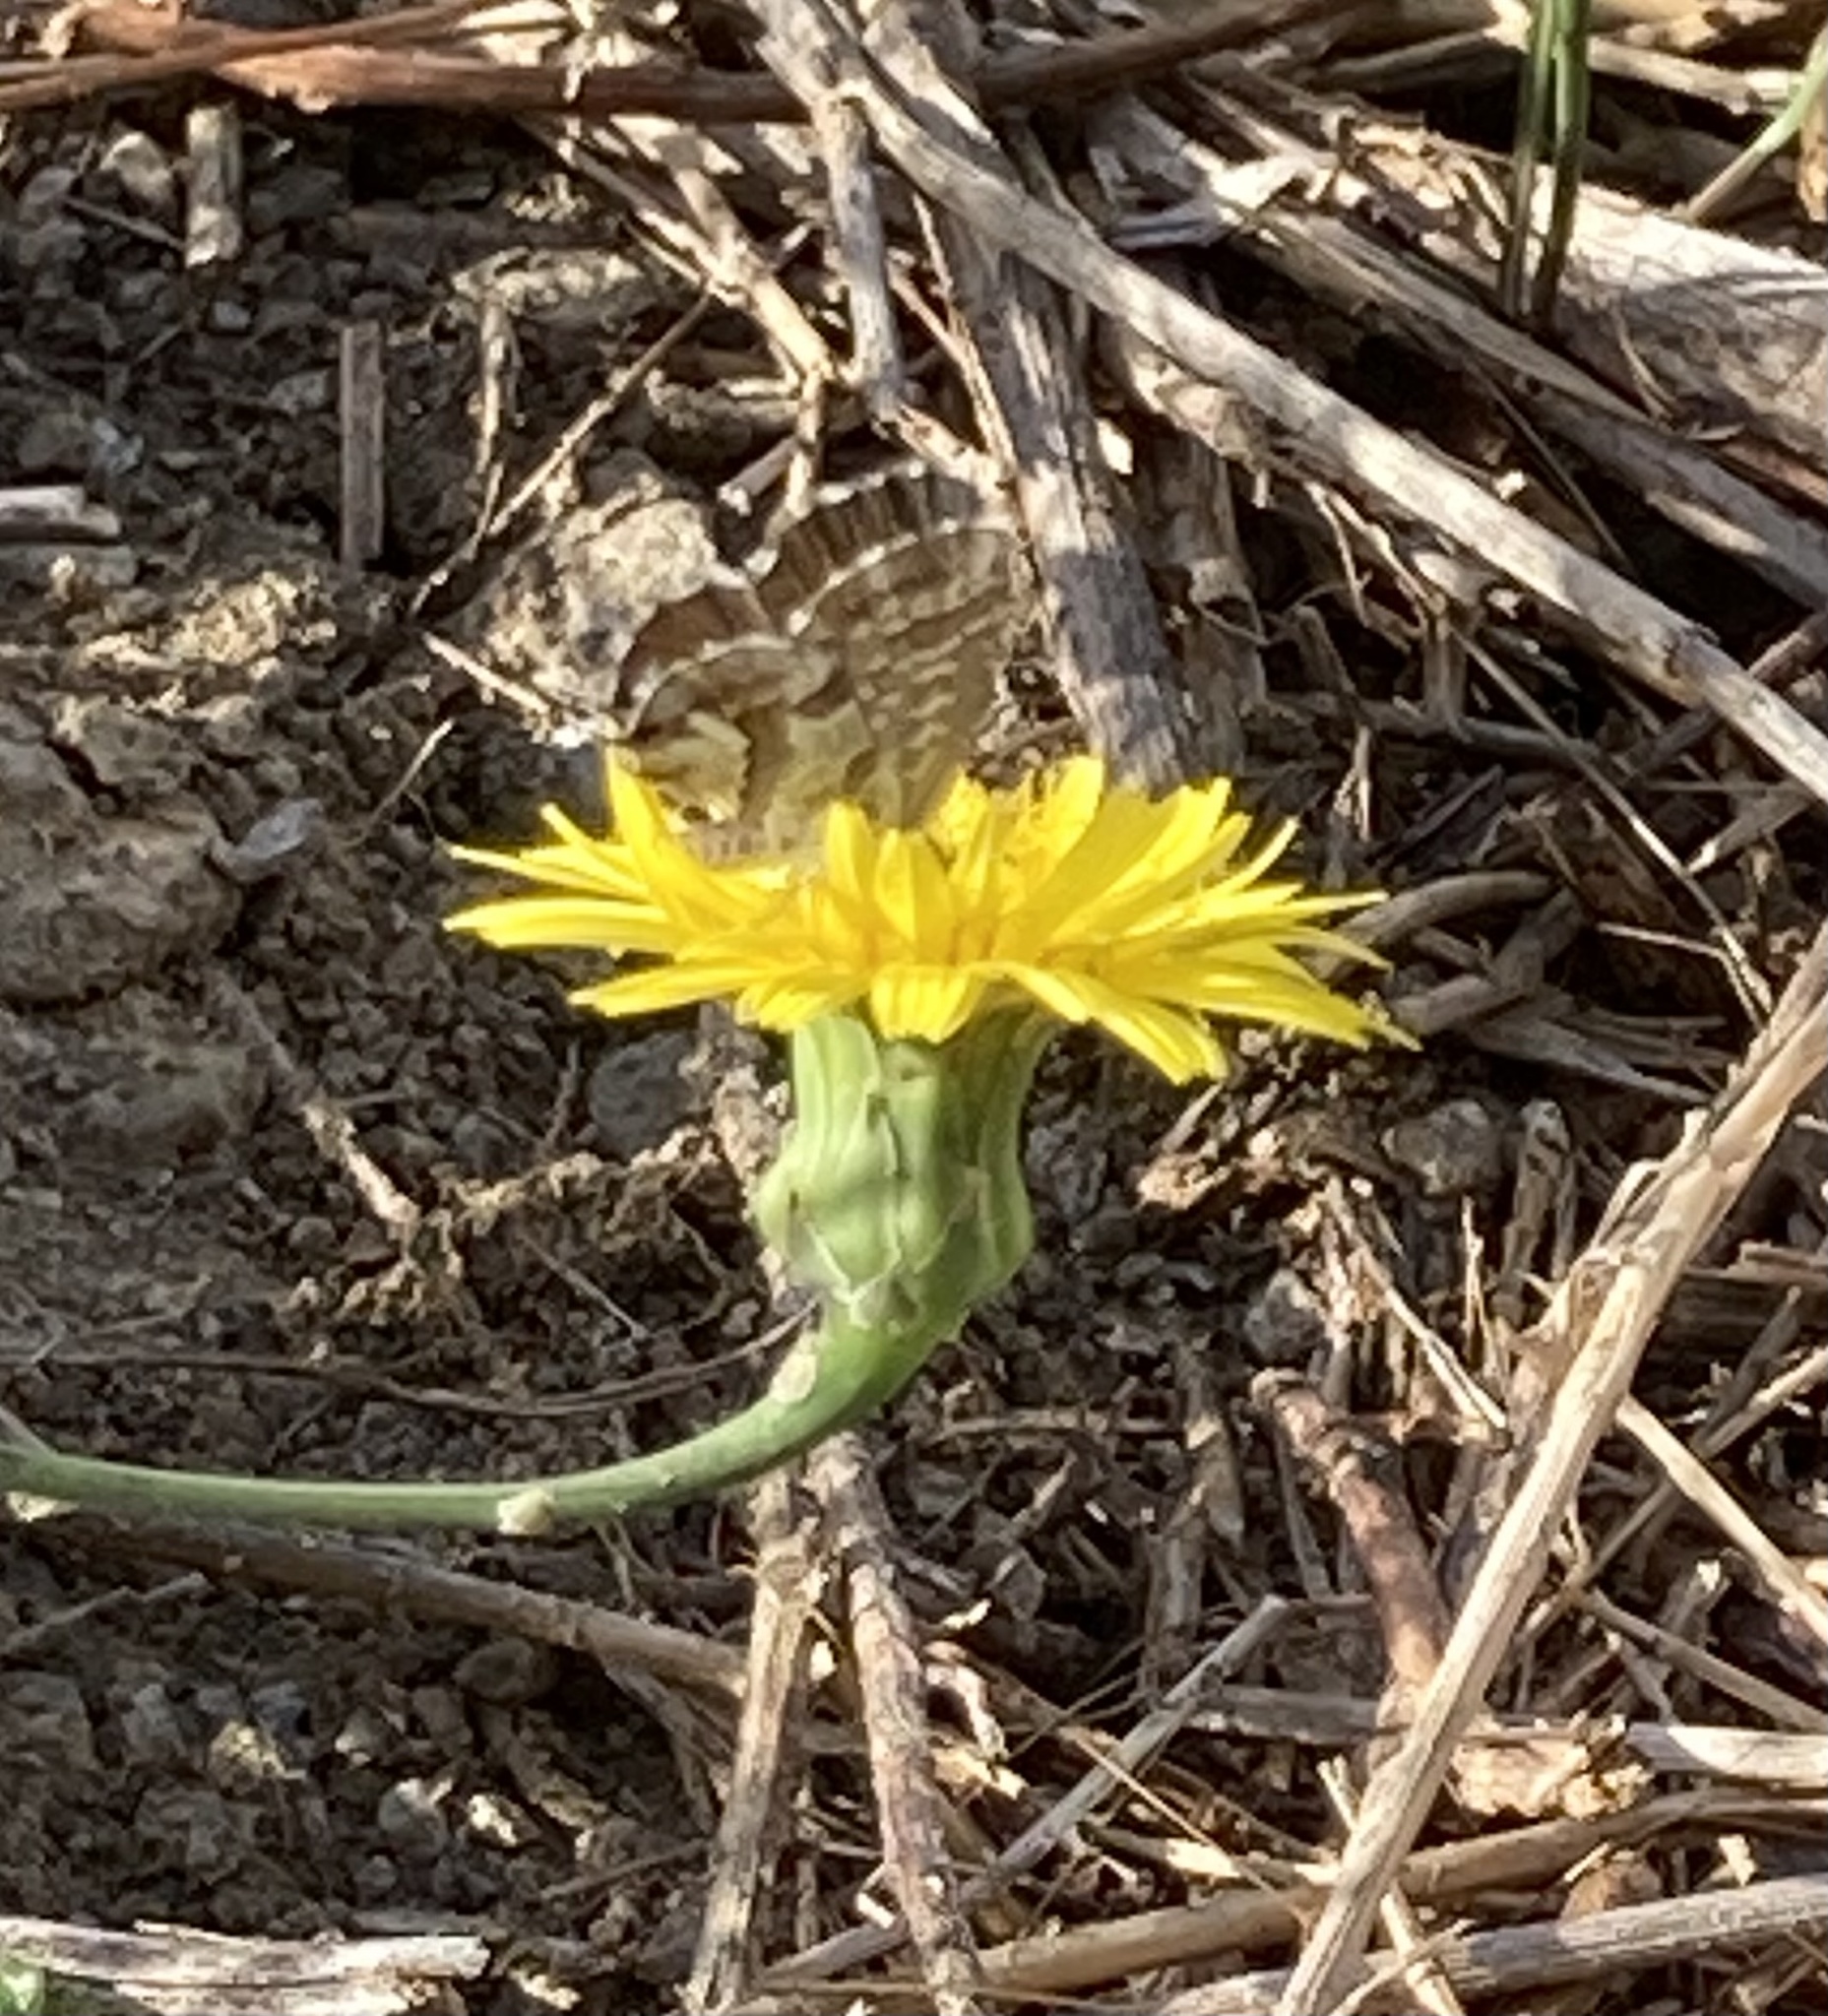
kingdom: Animalia
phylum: Arthropoda
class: Insecta
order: Lepidoptera
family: Lycaenidae
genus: Cacyreus
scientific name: Cacyreus marshalli
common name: Geranium bronze
